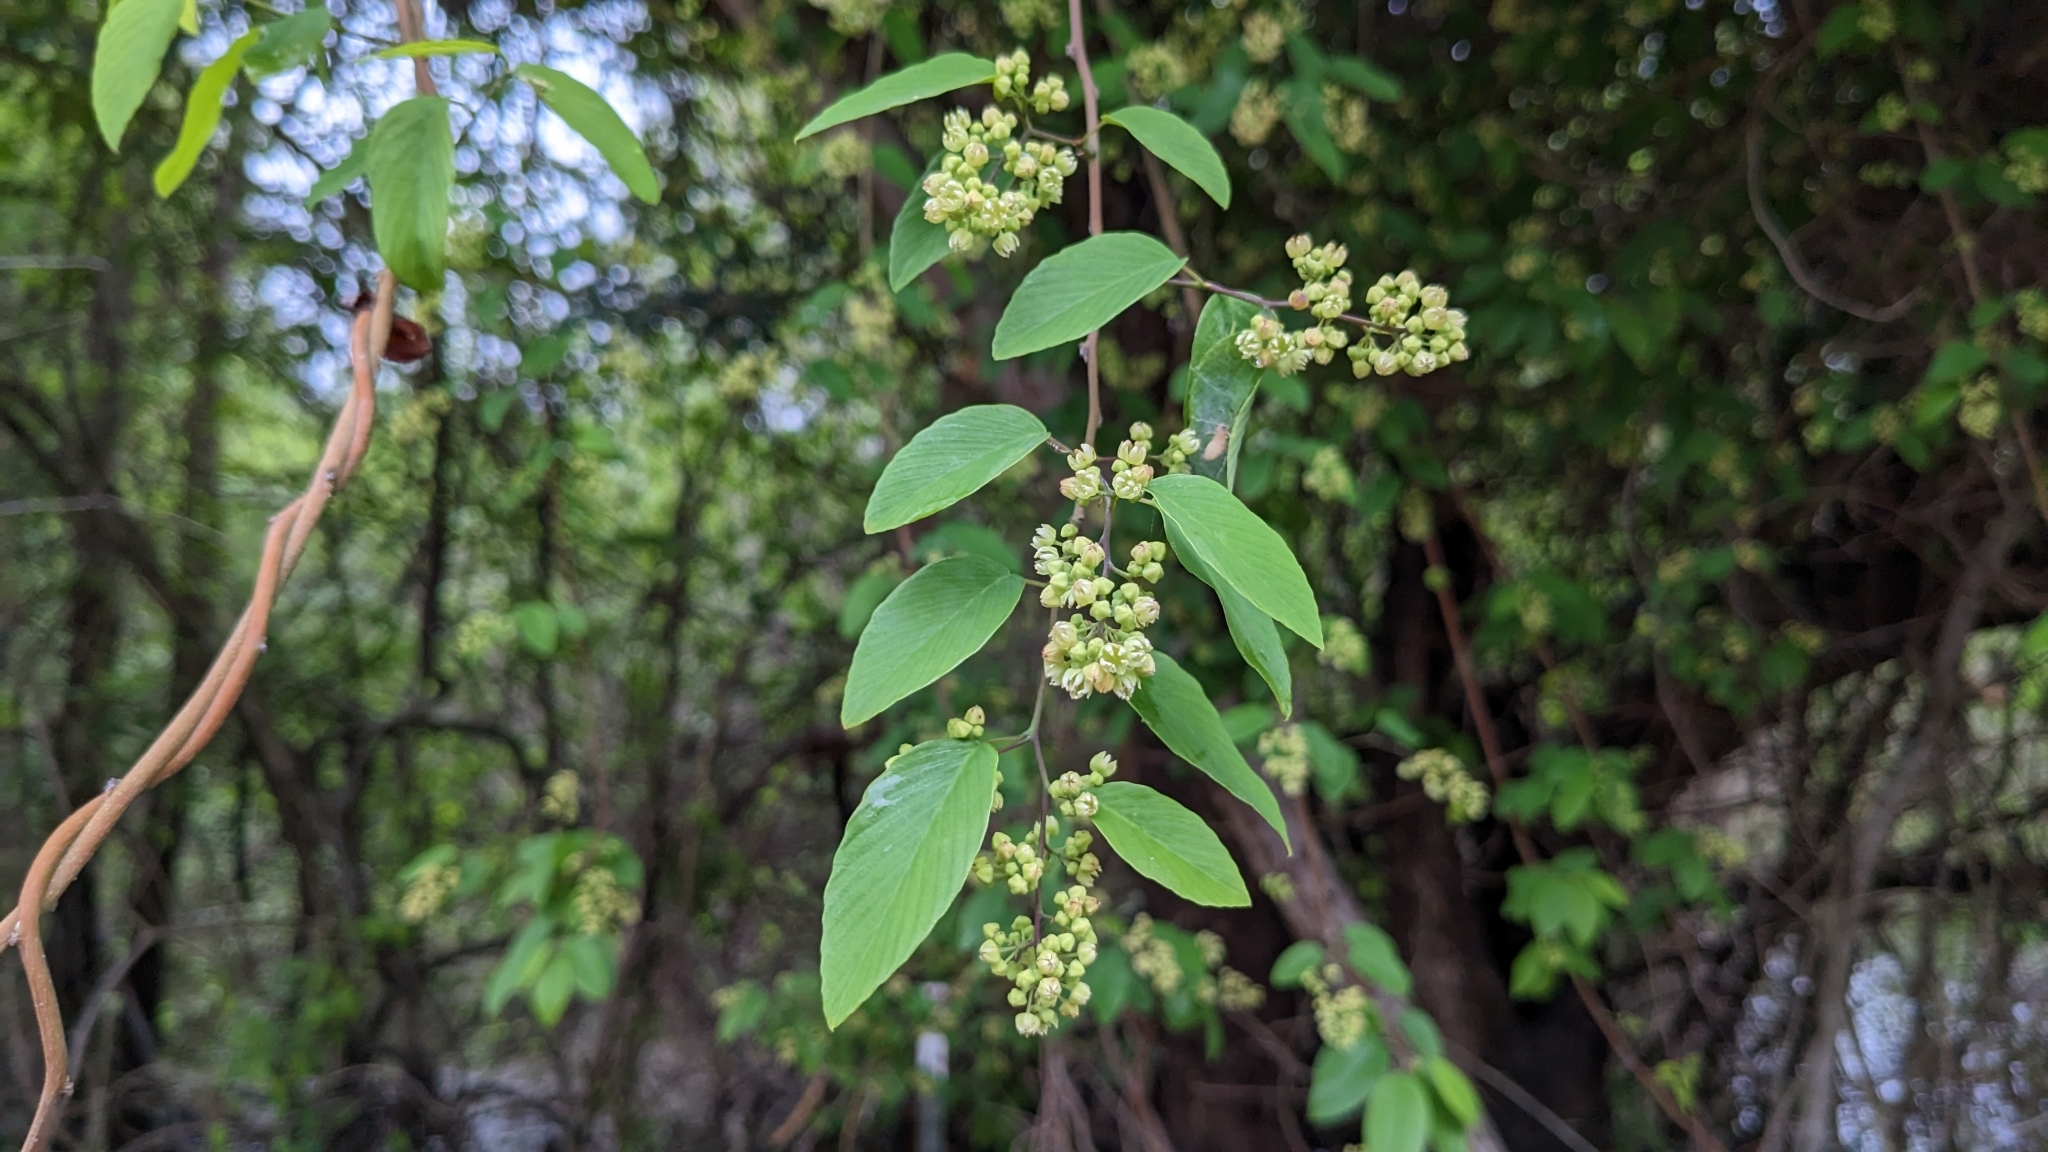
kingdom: Plantae
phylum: Tracheophyta
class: Magnoliopsida
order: Rosales
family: Rhamnaceae
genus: Berchemia
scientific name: Berchemia scandens
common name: Supplejack
